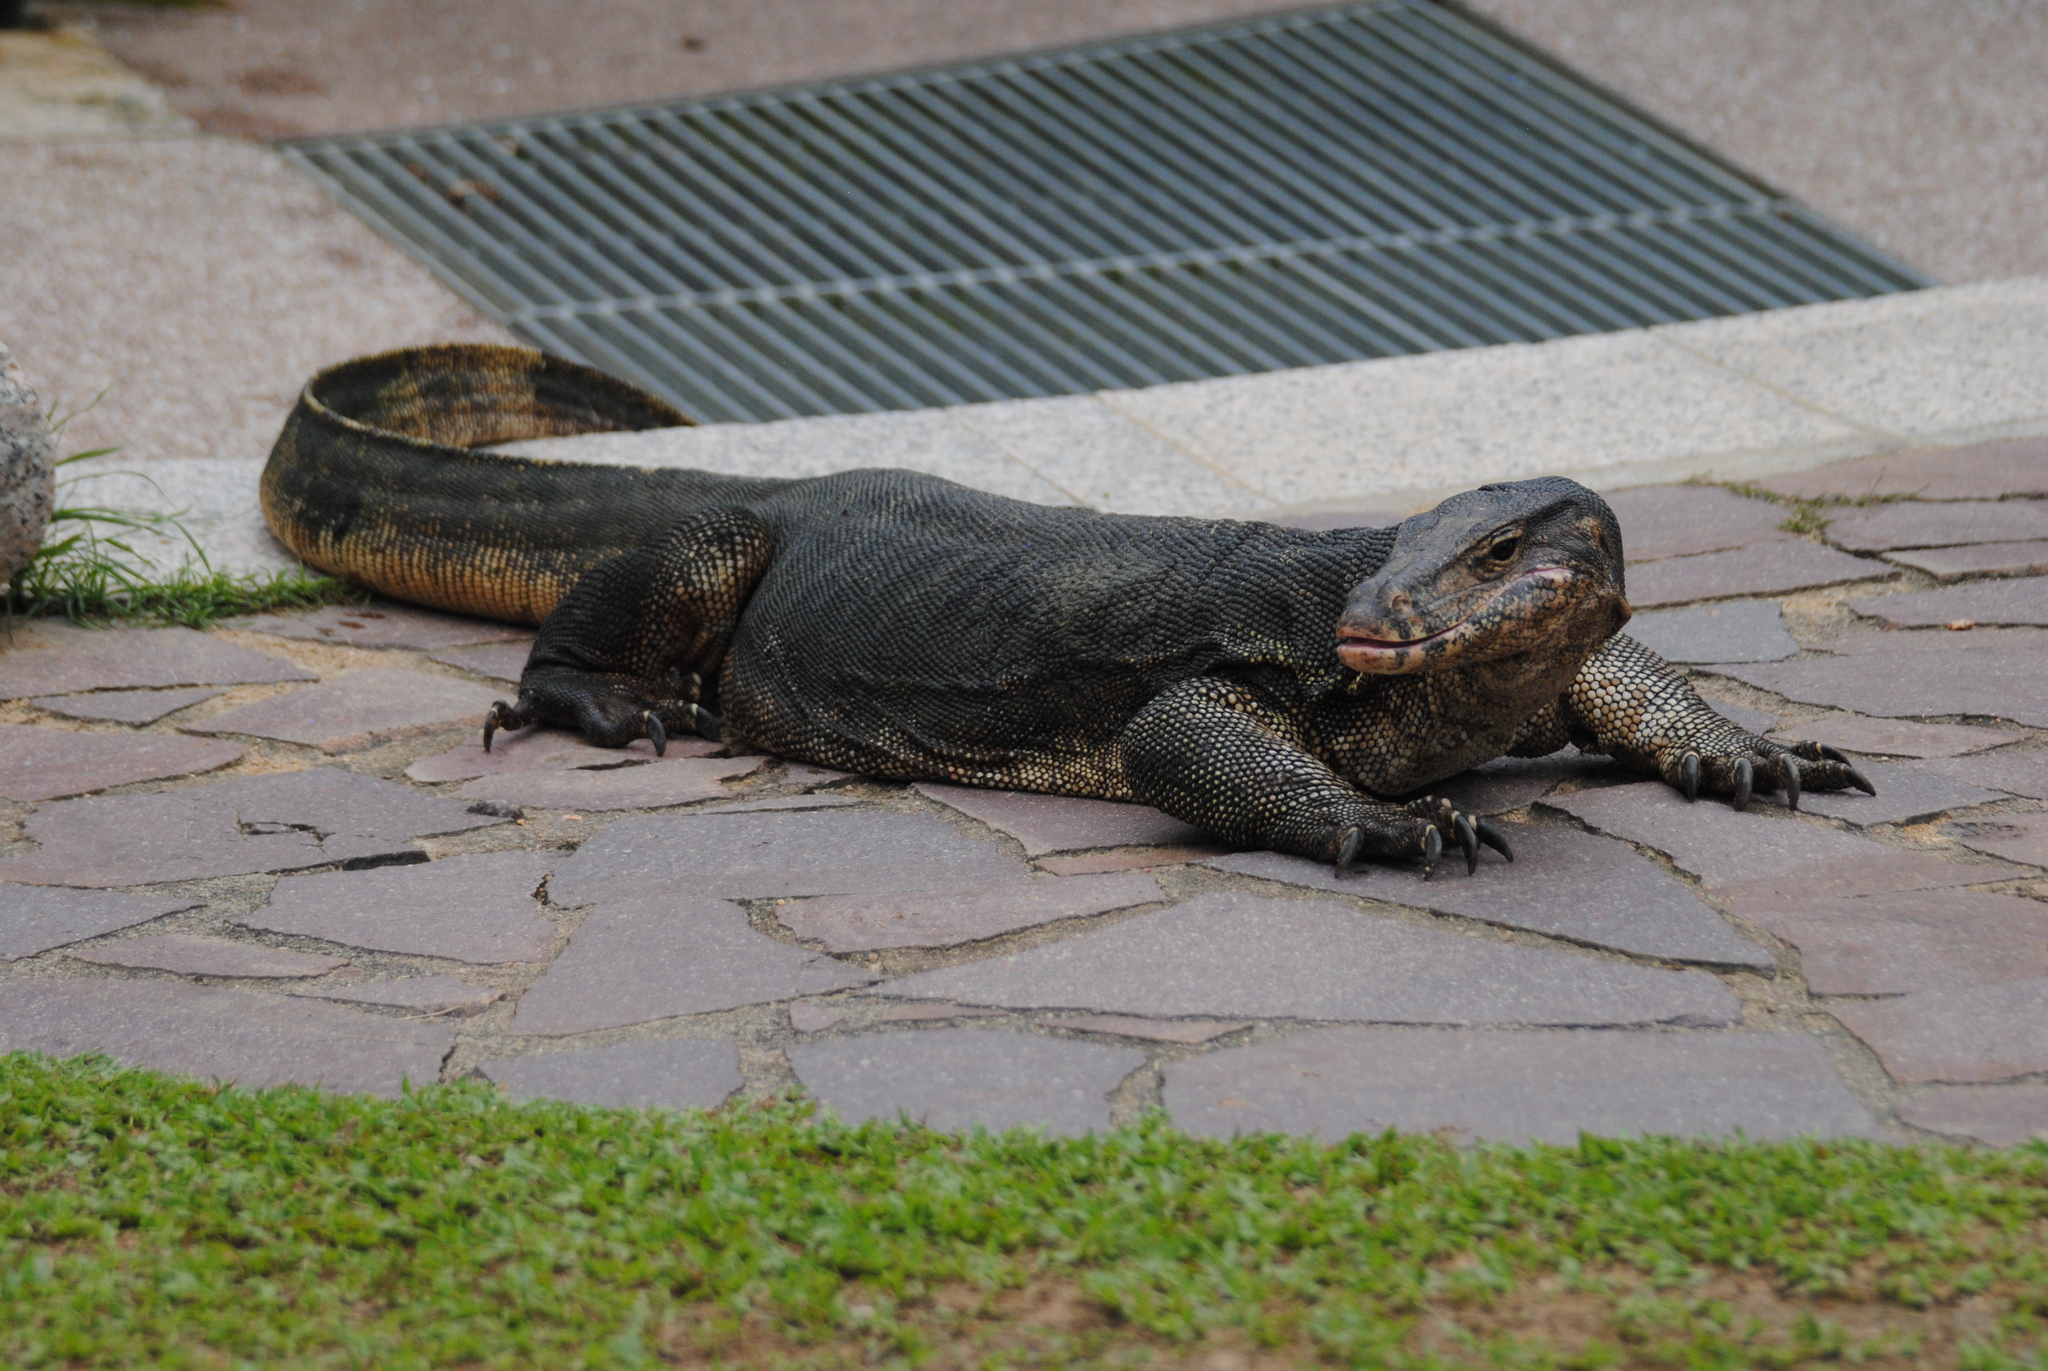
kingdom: Animalia
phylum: Chordata
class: Squamata
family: Varanidae
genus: Varanus
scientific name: Varanus salvator
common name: Common water monitor
